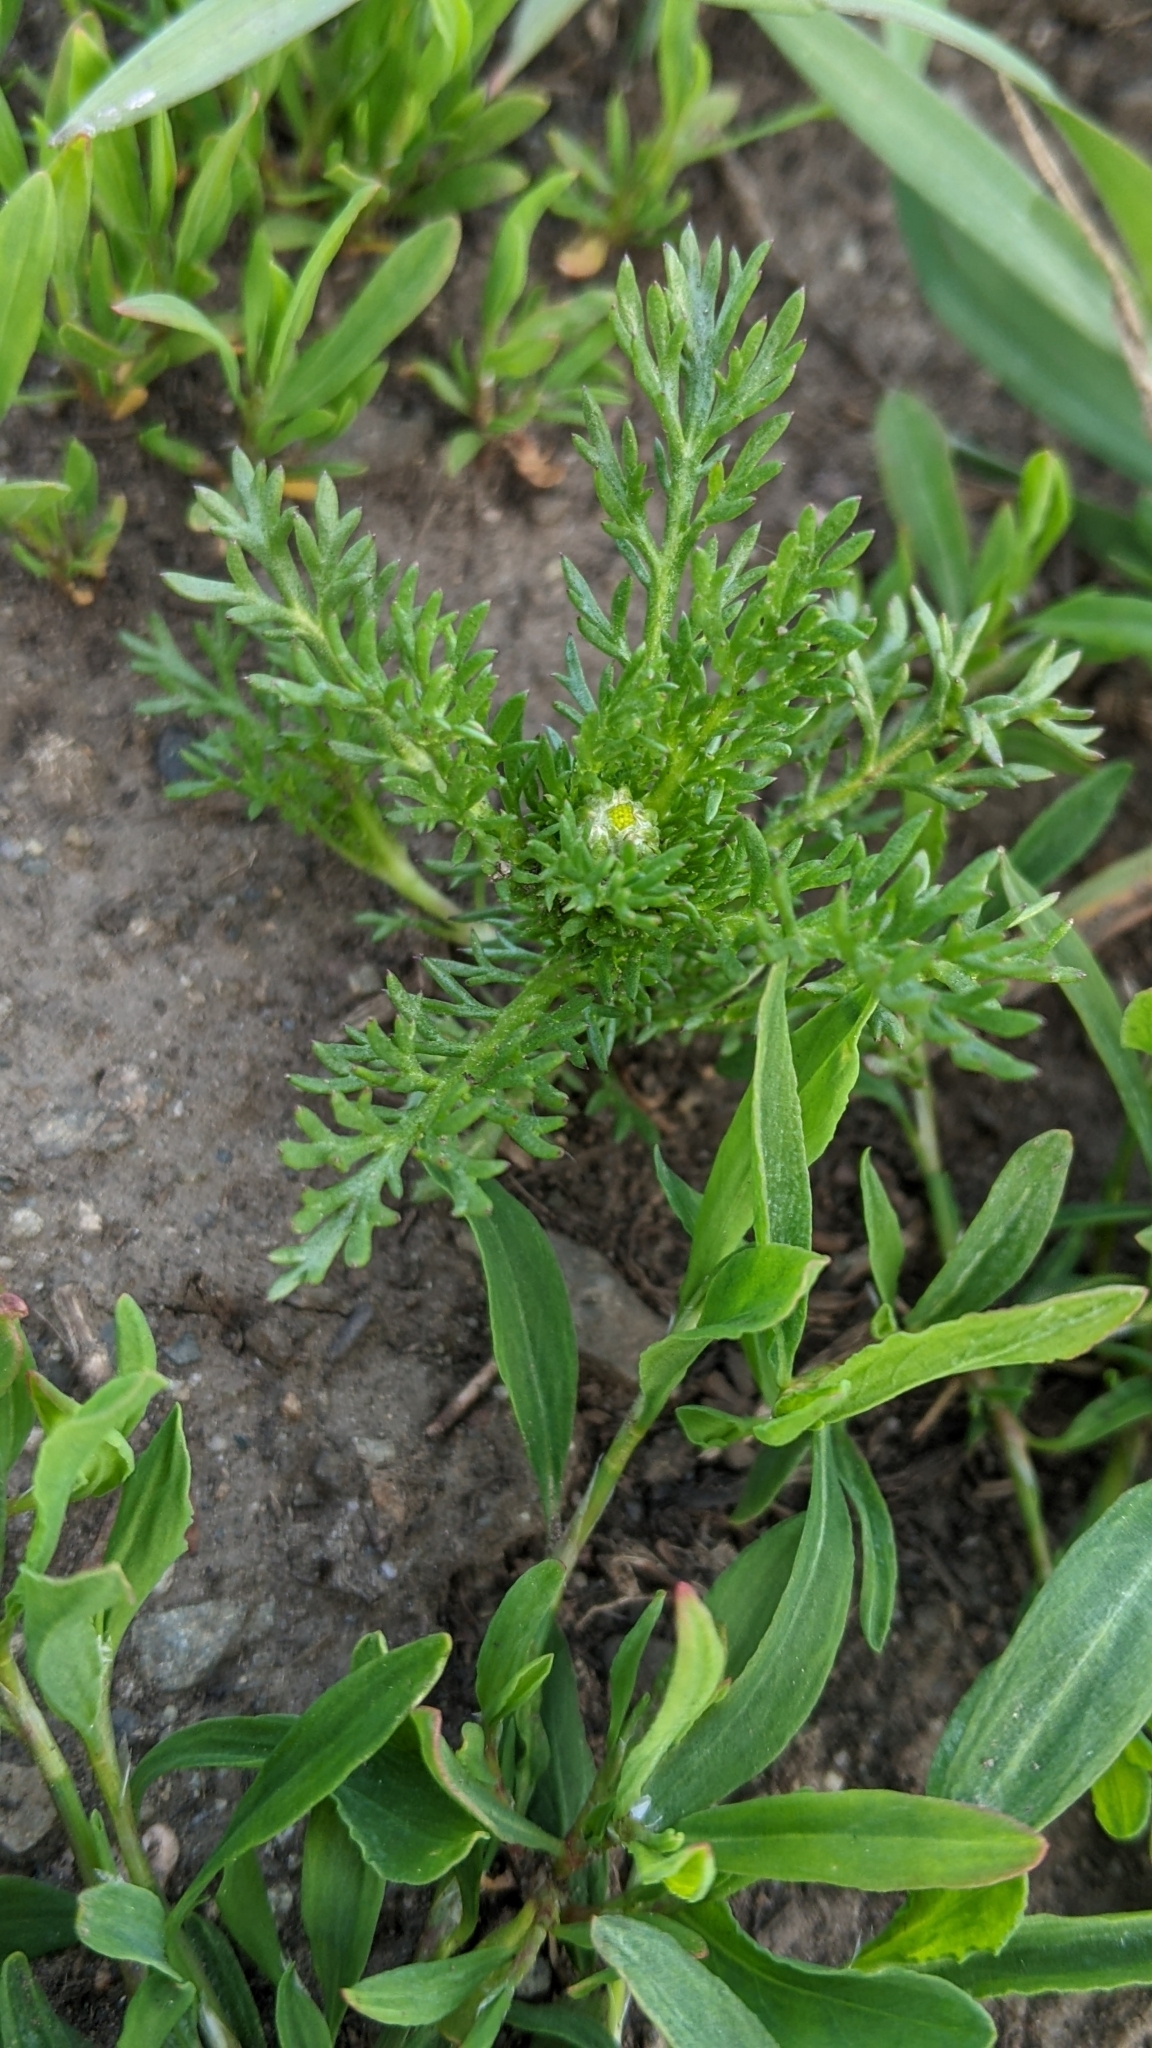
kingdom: Plantae
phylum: Tracheophyta
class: Magnoliopsida
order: Asterales
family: Asteraceae
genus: Matricaria
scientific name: Matricaria discoidea
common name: Disc mayweed
